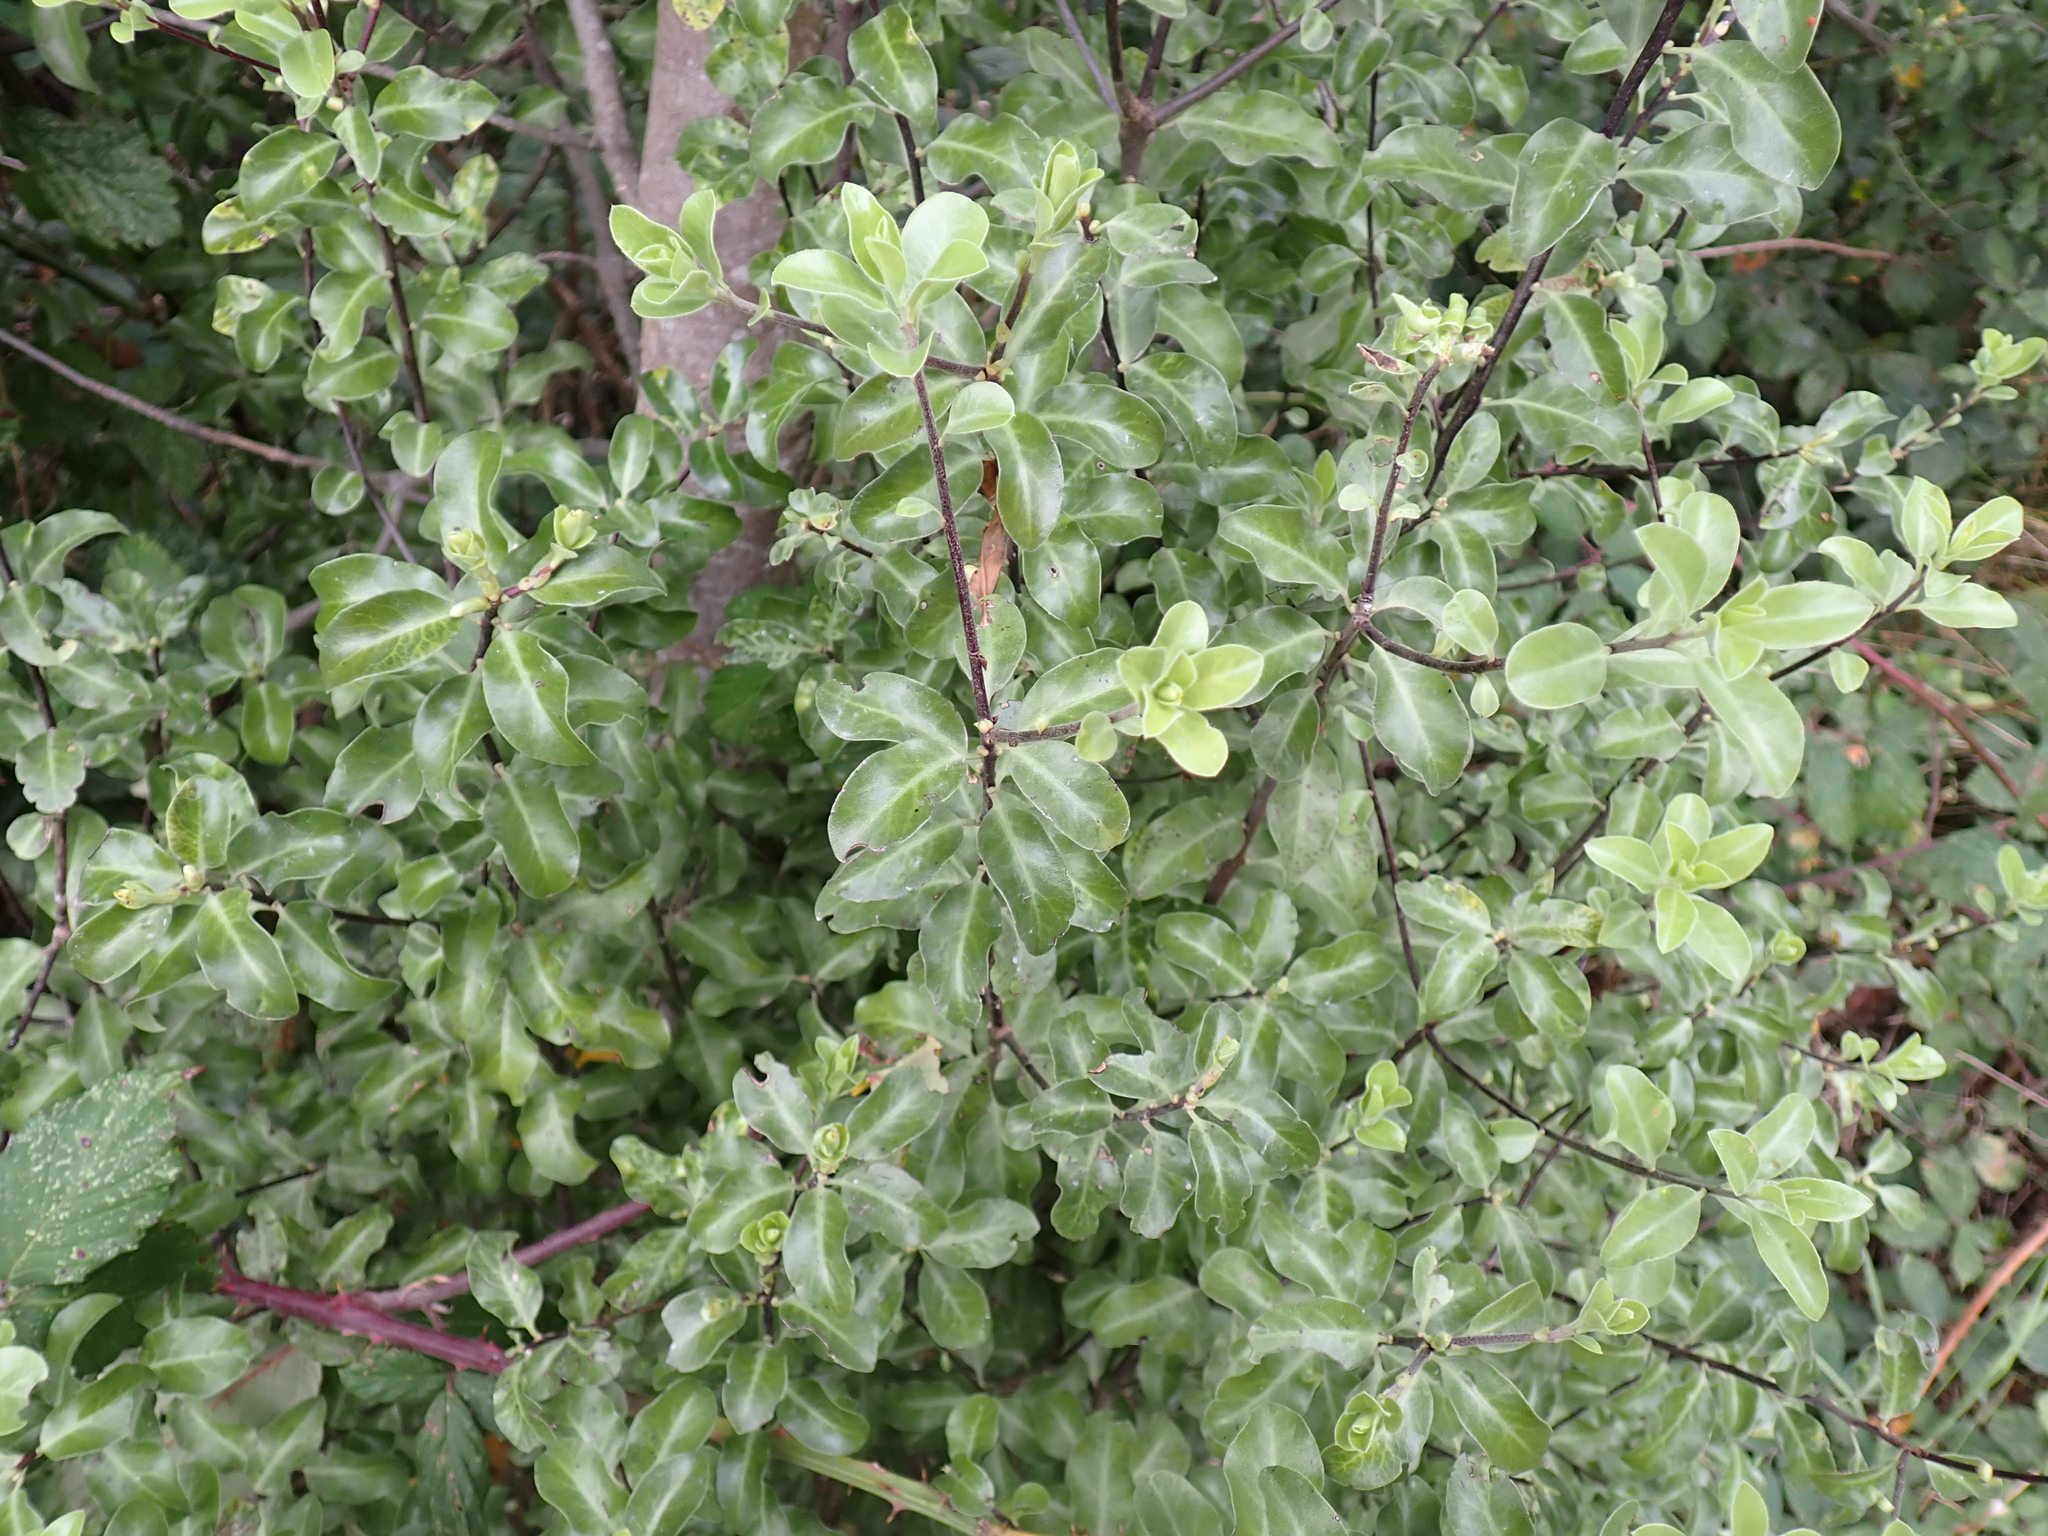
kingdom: Plantae
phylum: Tracheophyta
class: Magnoliopsida
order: Apiales
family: Pittosporaceae
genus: Pittosporum
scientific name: Pittosporum tenuifolium
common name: Kohuhu
